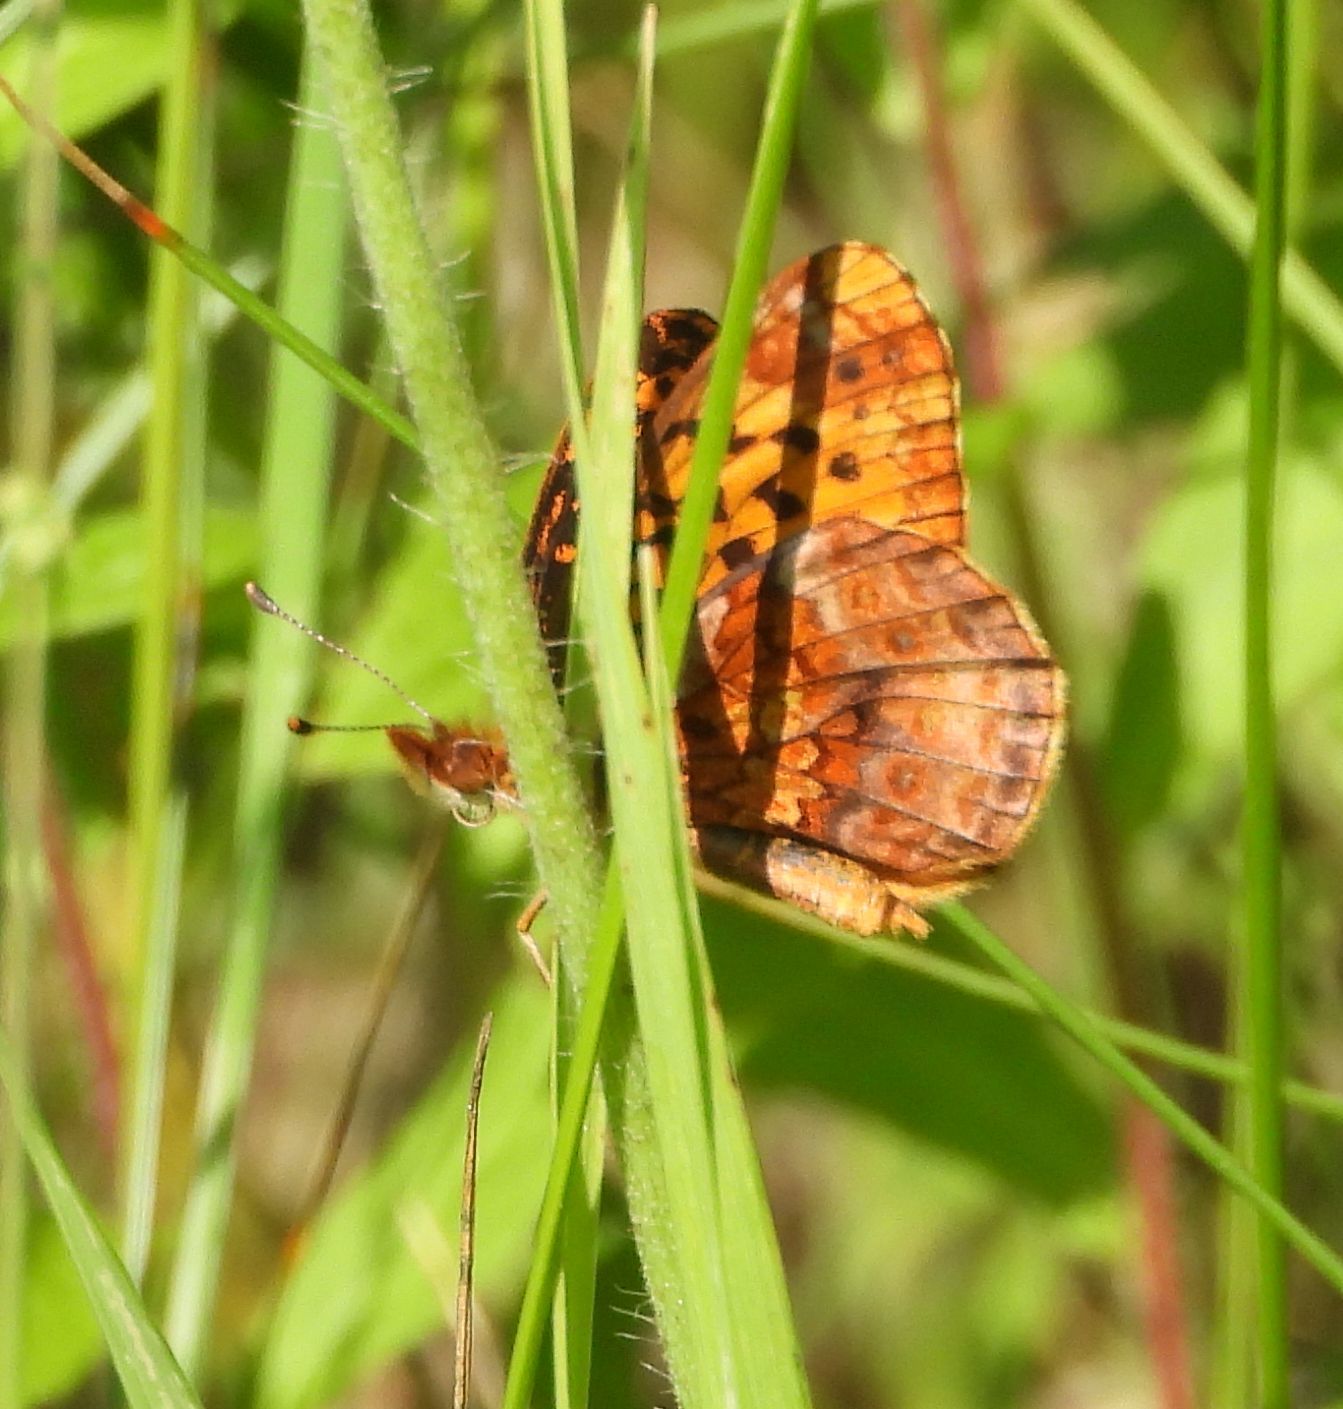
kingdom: Animalia
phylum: Arthropoda
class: Insecta
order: Lepidoptera
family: Nymphalidae
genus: Clossiana
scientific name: Clossiana toddi
